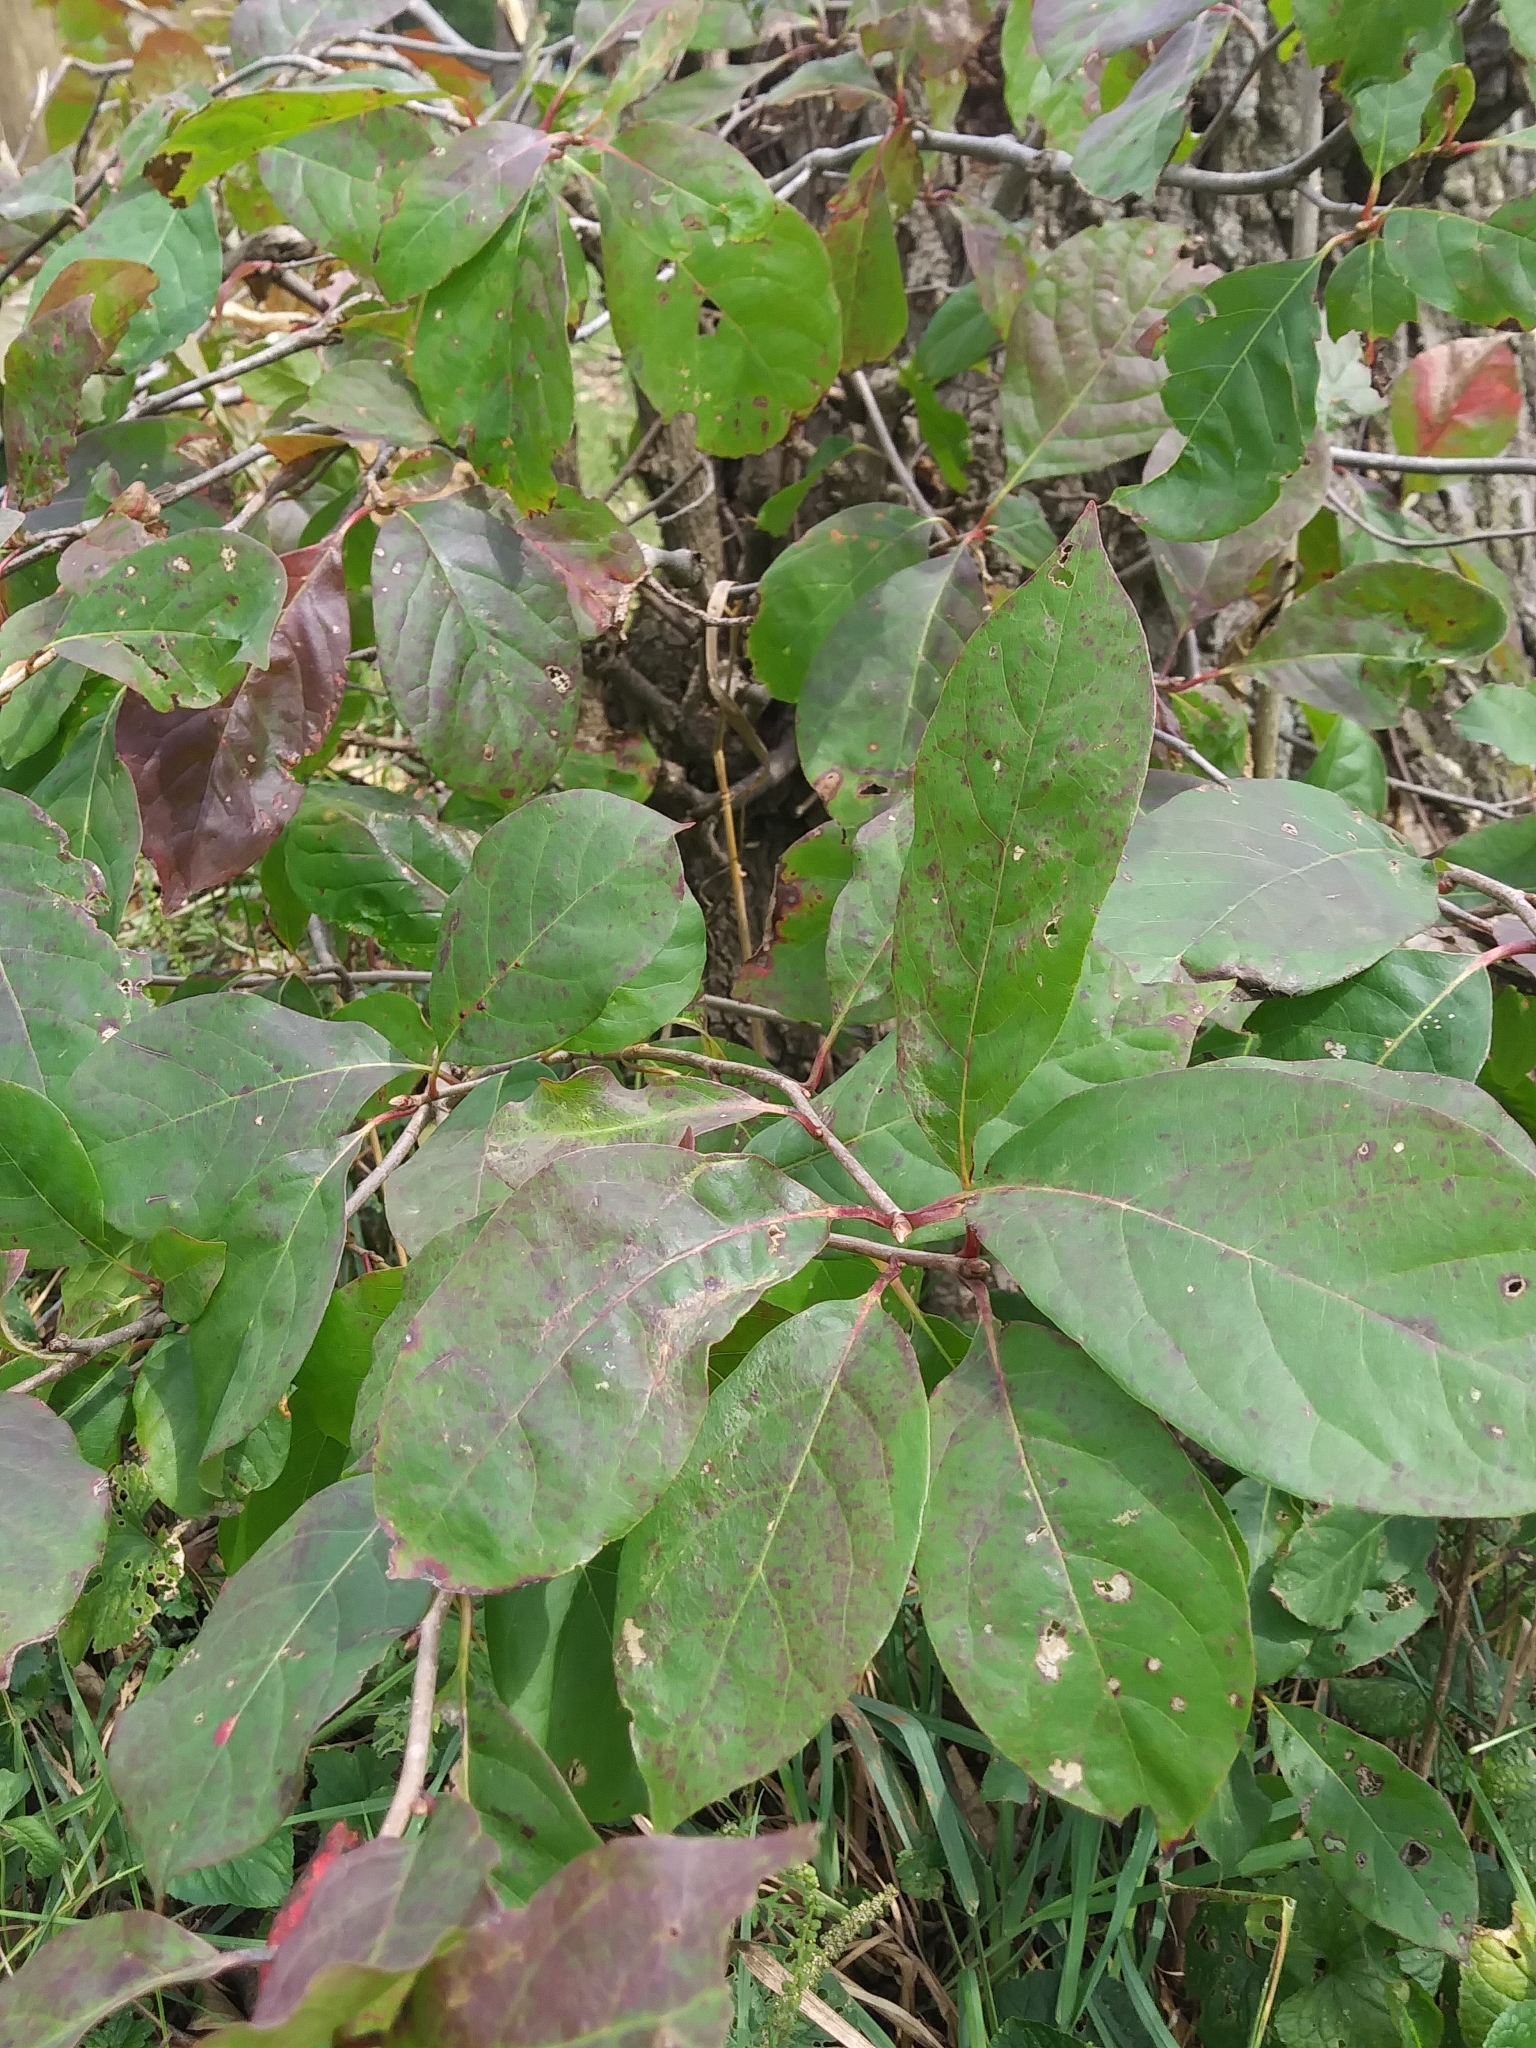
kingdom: Plantae
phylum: Tracheophyta
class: Magnoliopsida
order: Cornales
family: Nyssaceae
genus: Nyssa
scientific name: Nyssa sylvatica
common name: Black tupelo
